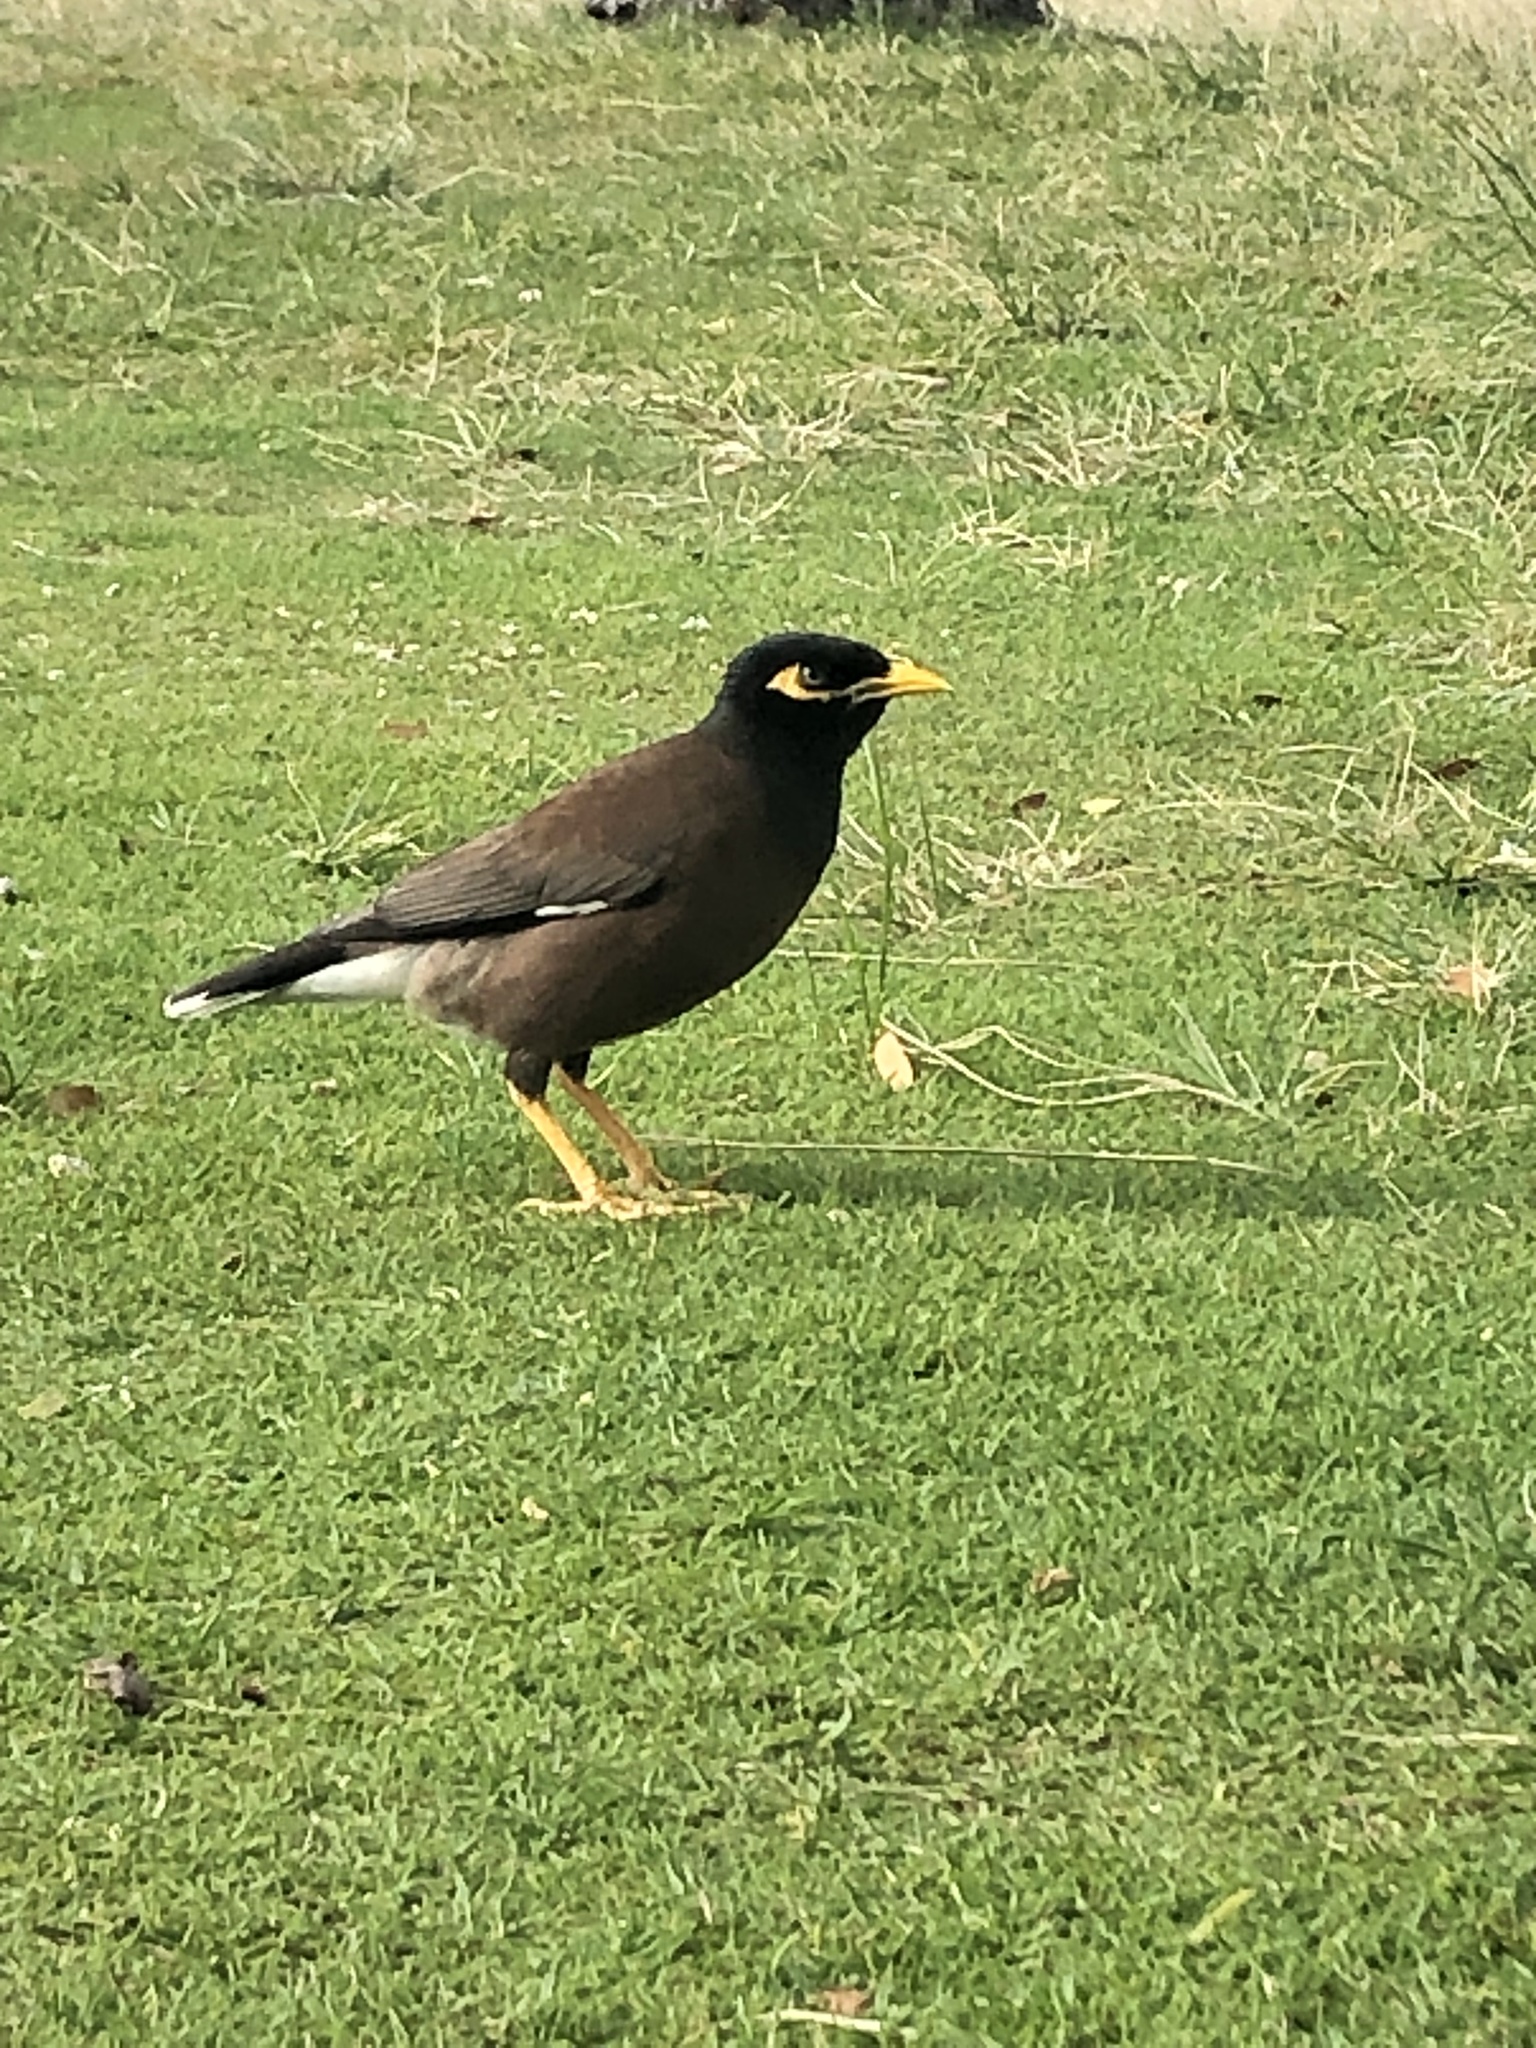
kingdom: Animalia
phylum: Chordata
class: Aves
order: Passeriformes
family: Sturnidae
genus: Acridotheres
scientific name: Acridotheres tristis
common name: Common myna
